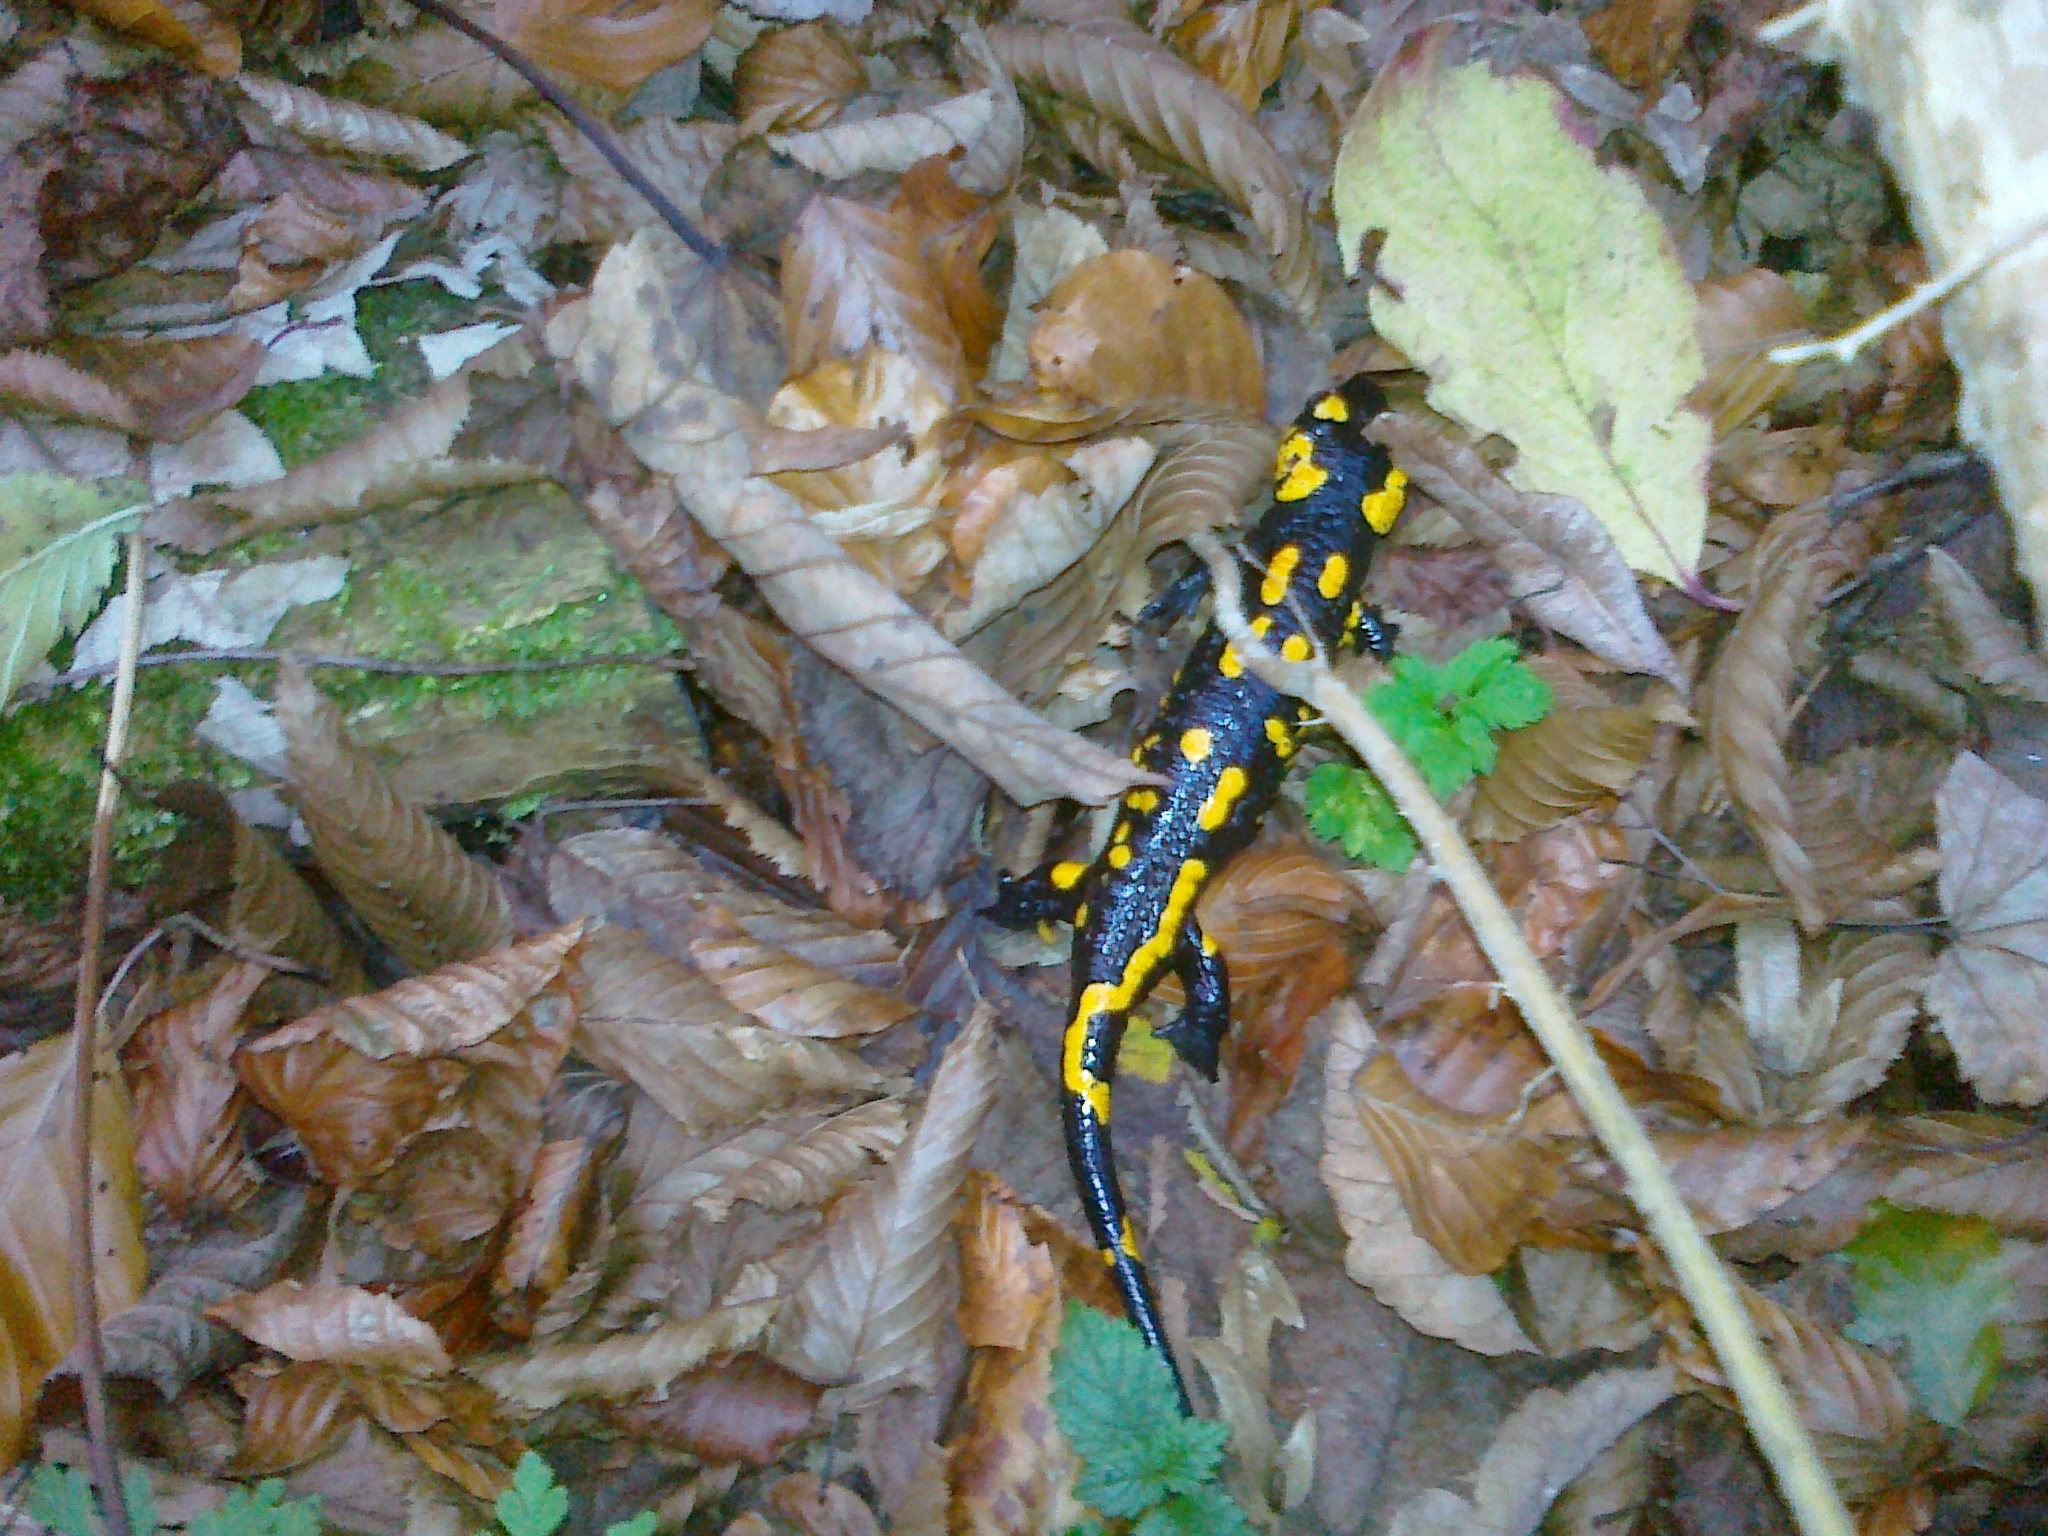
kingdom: Animalia
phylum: Chordata
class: Amphibia
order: Caudata
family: Salamandridae
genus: Salamandra
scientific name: Salamandra salamandra
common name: Fire salamander
